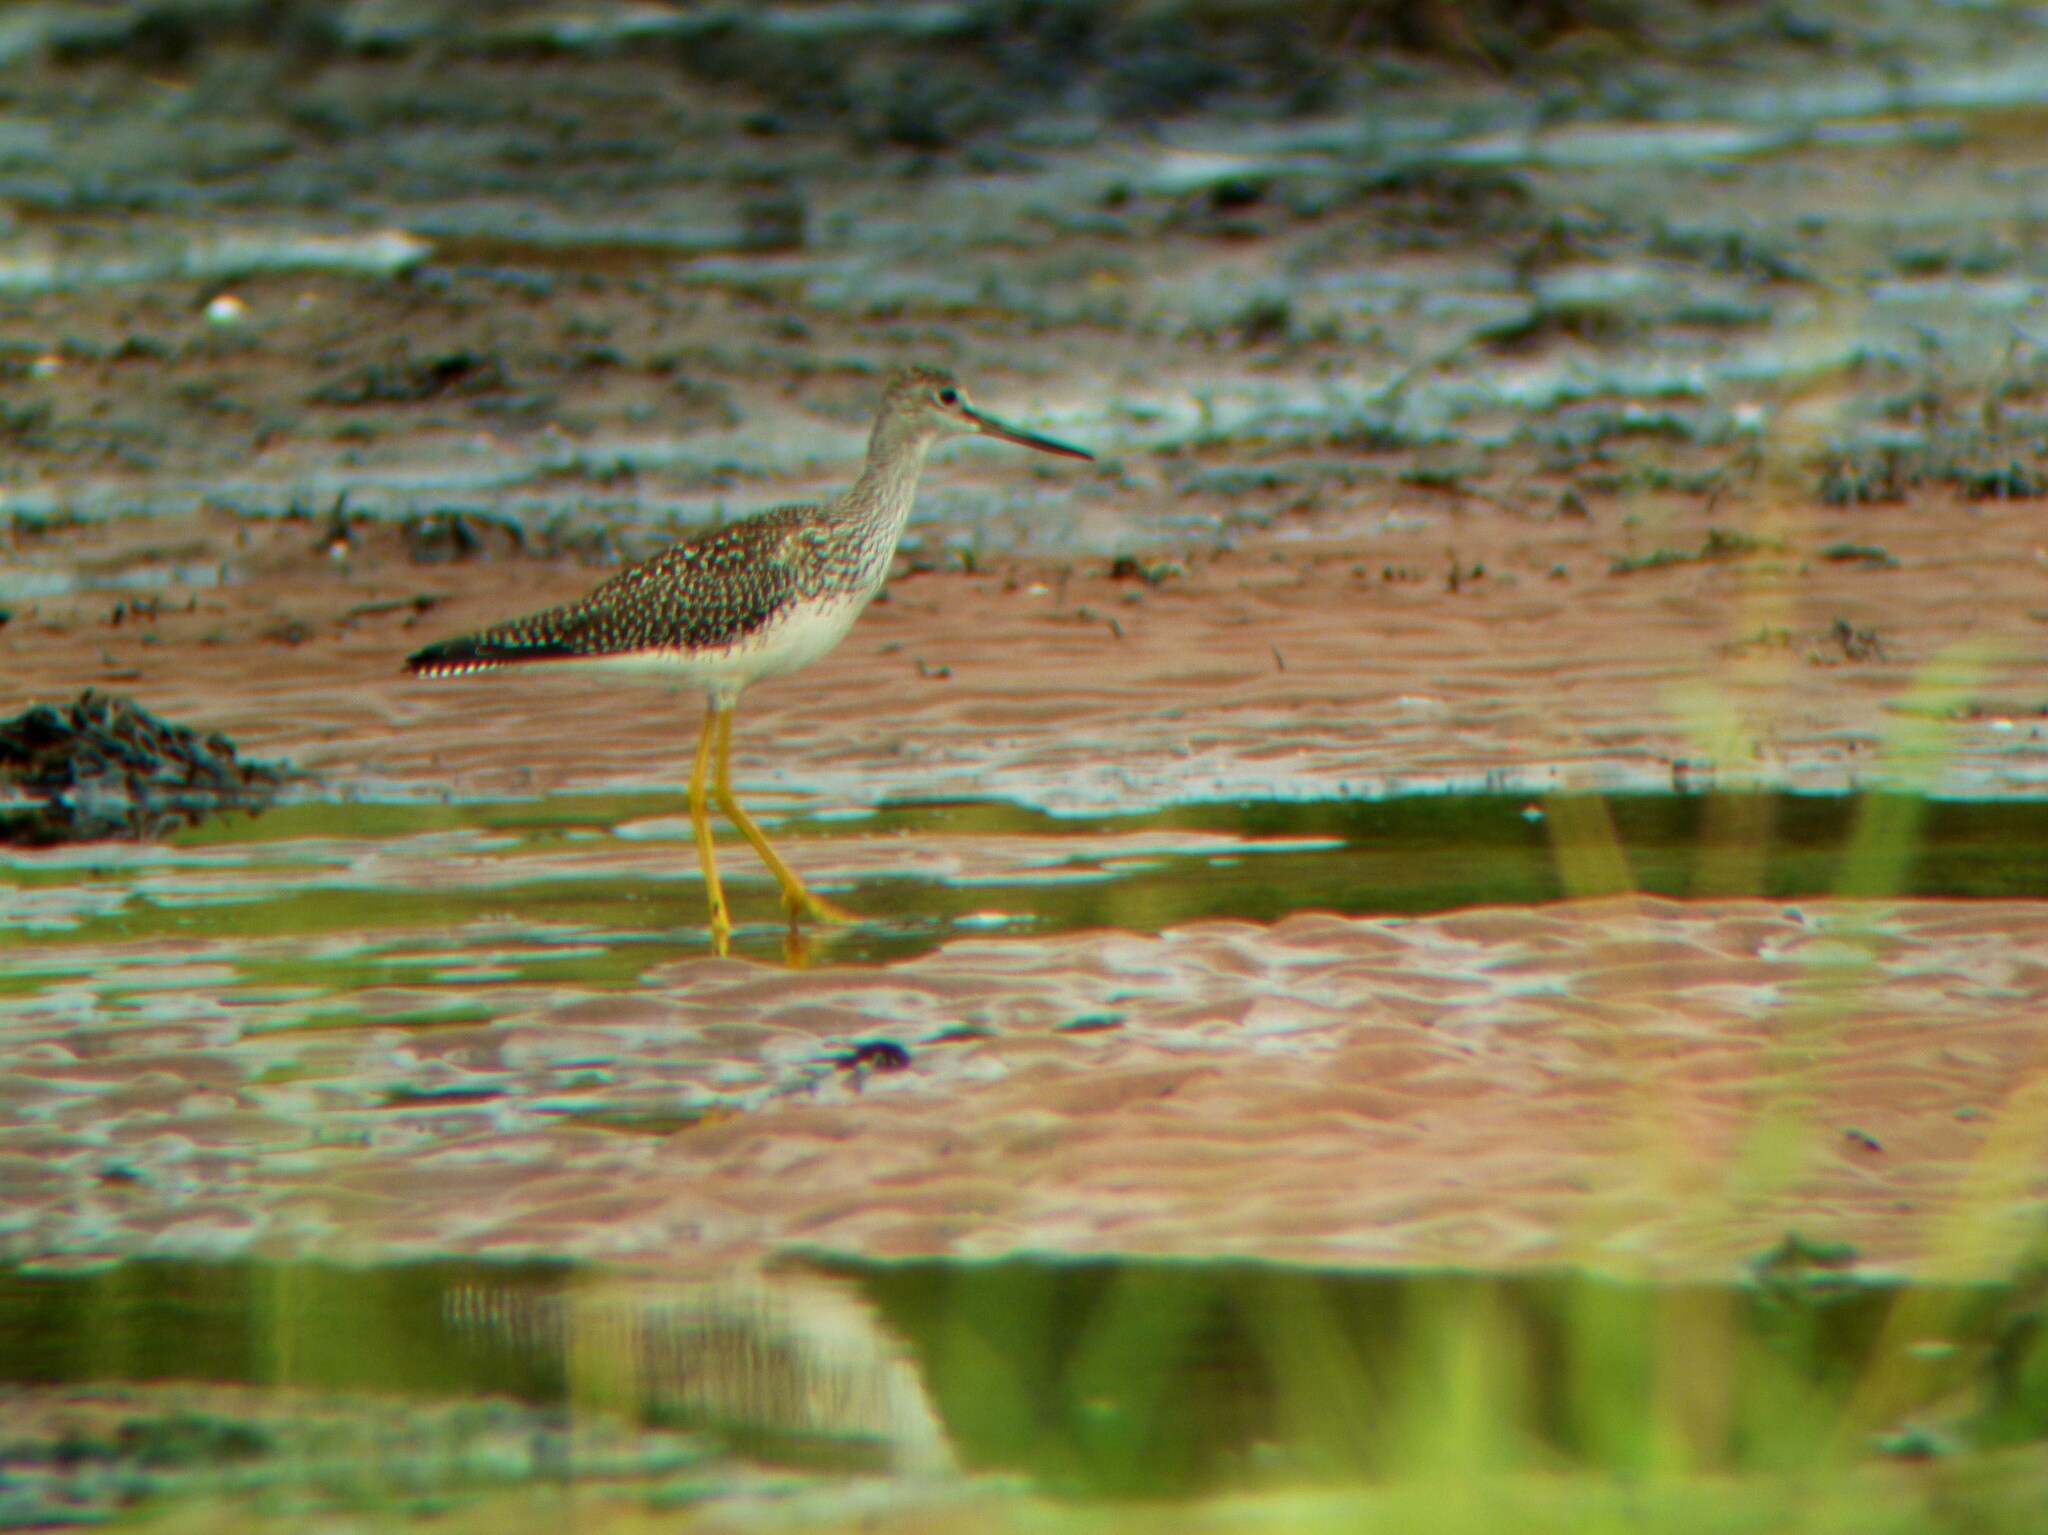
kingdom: Animalia
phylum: Chordata
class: Aves
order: Charadriiformes
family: Scolopacidae
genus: Tringa
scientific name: Tringa melanoleuca
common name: Greater yellowlegs
